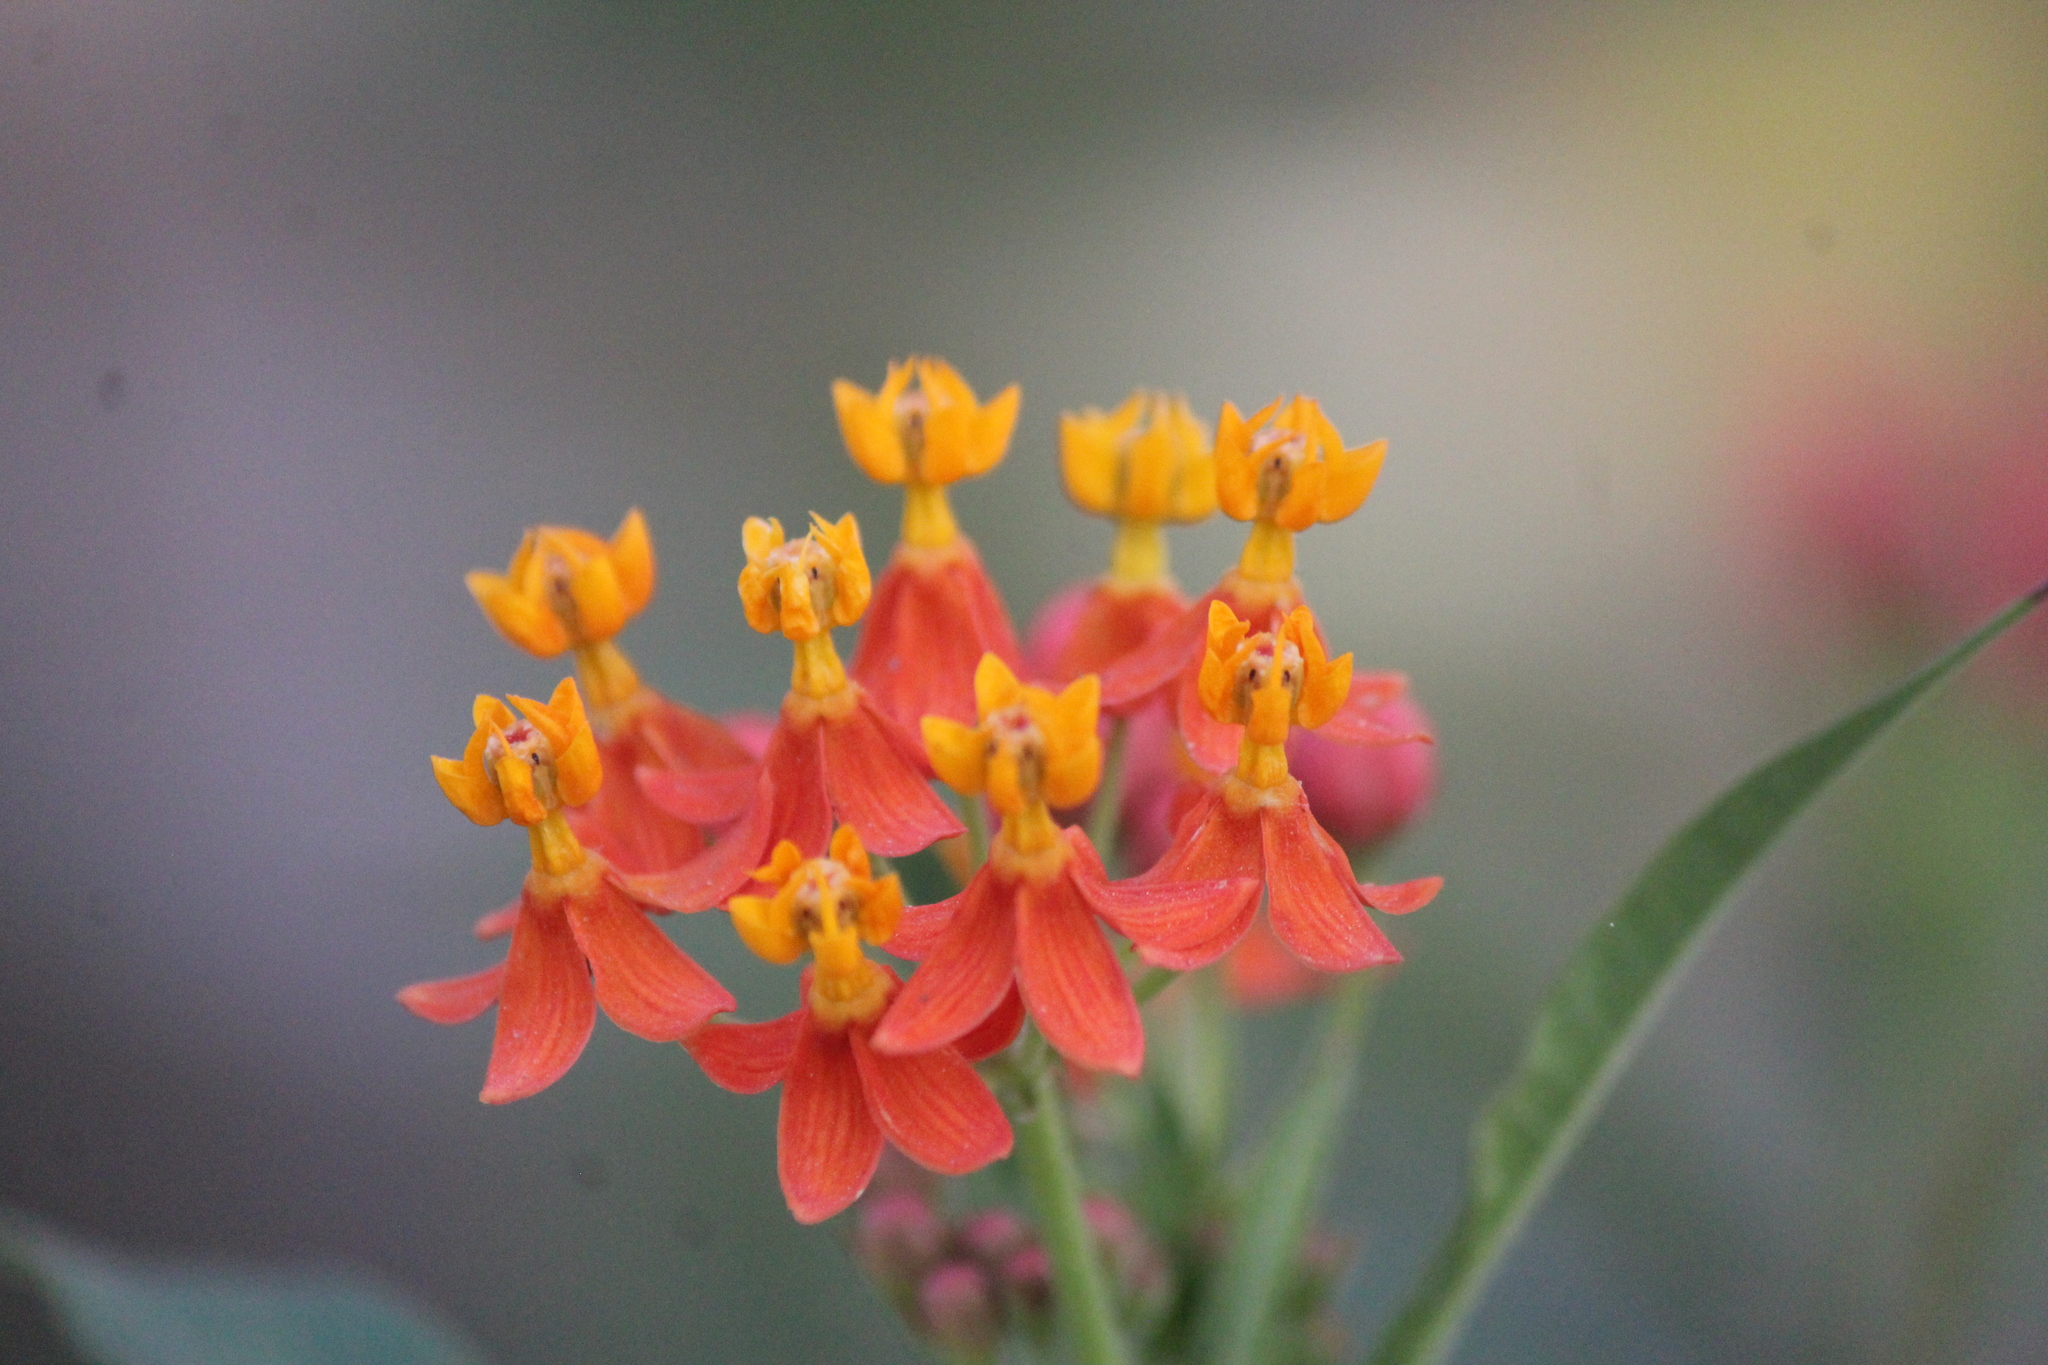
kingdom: Plantae
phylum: Tracheophyta
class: Magnoliopsida
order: Gentianales
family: Apocynaceae
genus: Asclepias
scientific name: Asclepias curassavica
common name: Bloodflower
